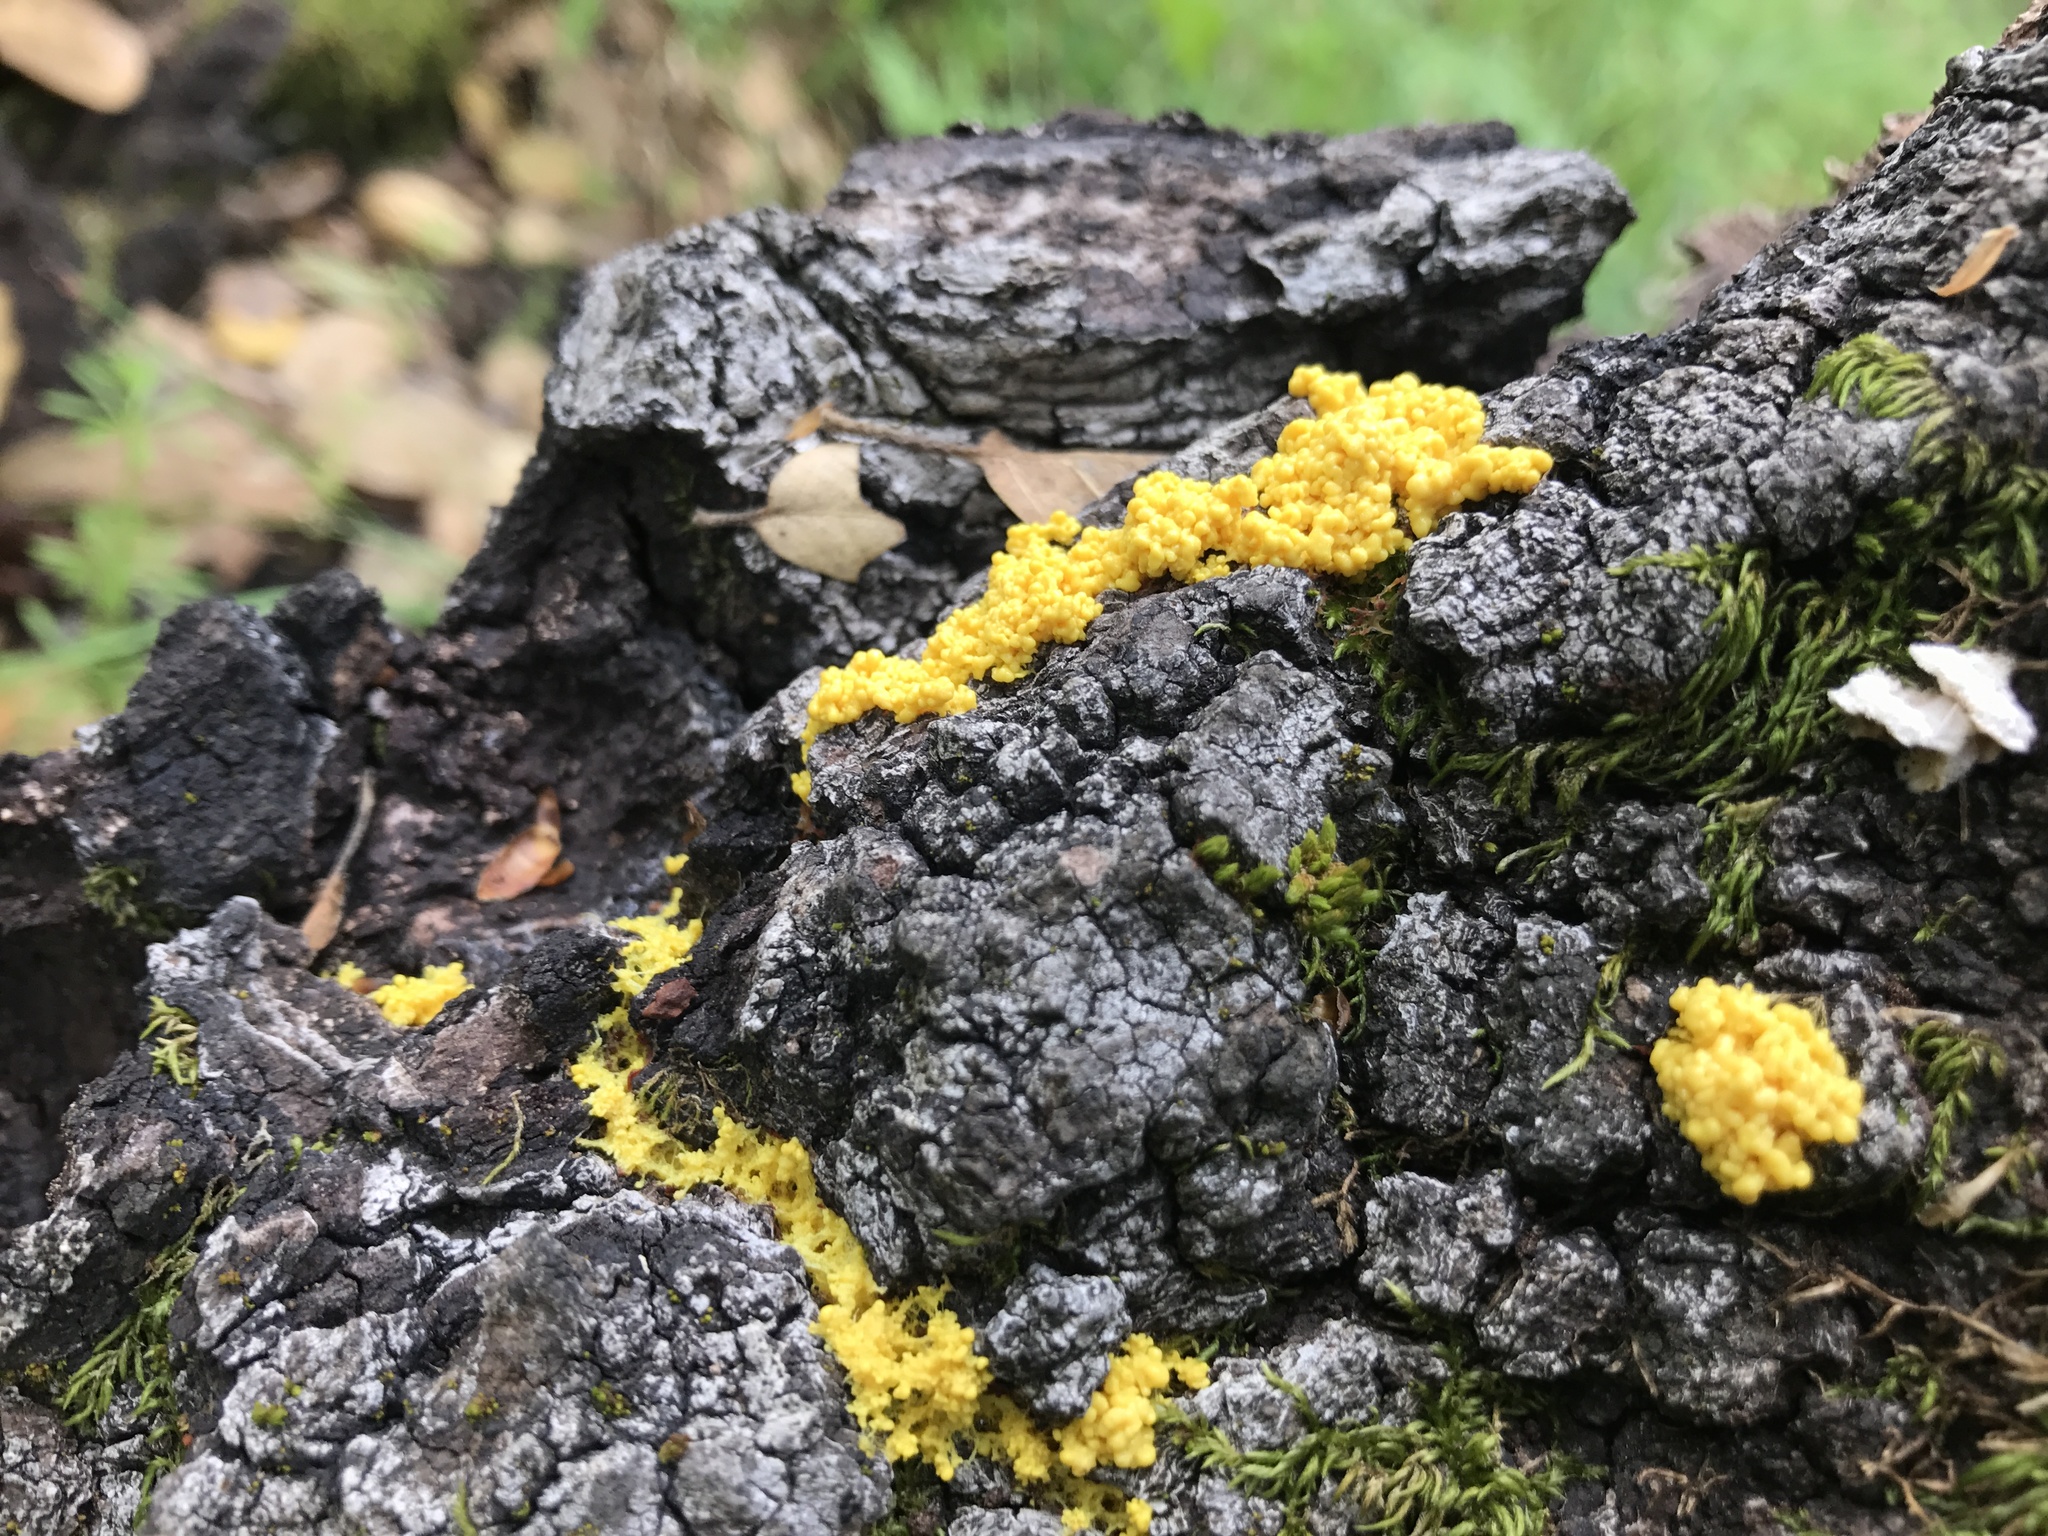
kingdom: Protozoa
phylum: Mycetozoa
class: Myxomycetes
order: Physarales
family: Physaraceae
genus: Fuligo
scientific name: Fuligo septica
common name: Dog vomit slime mold
